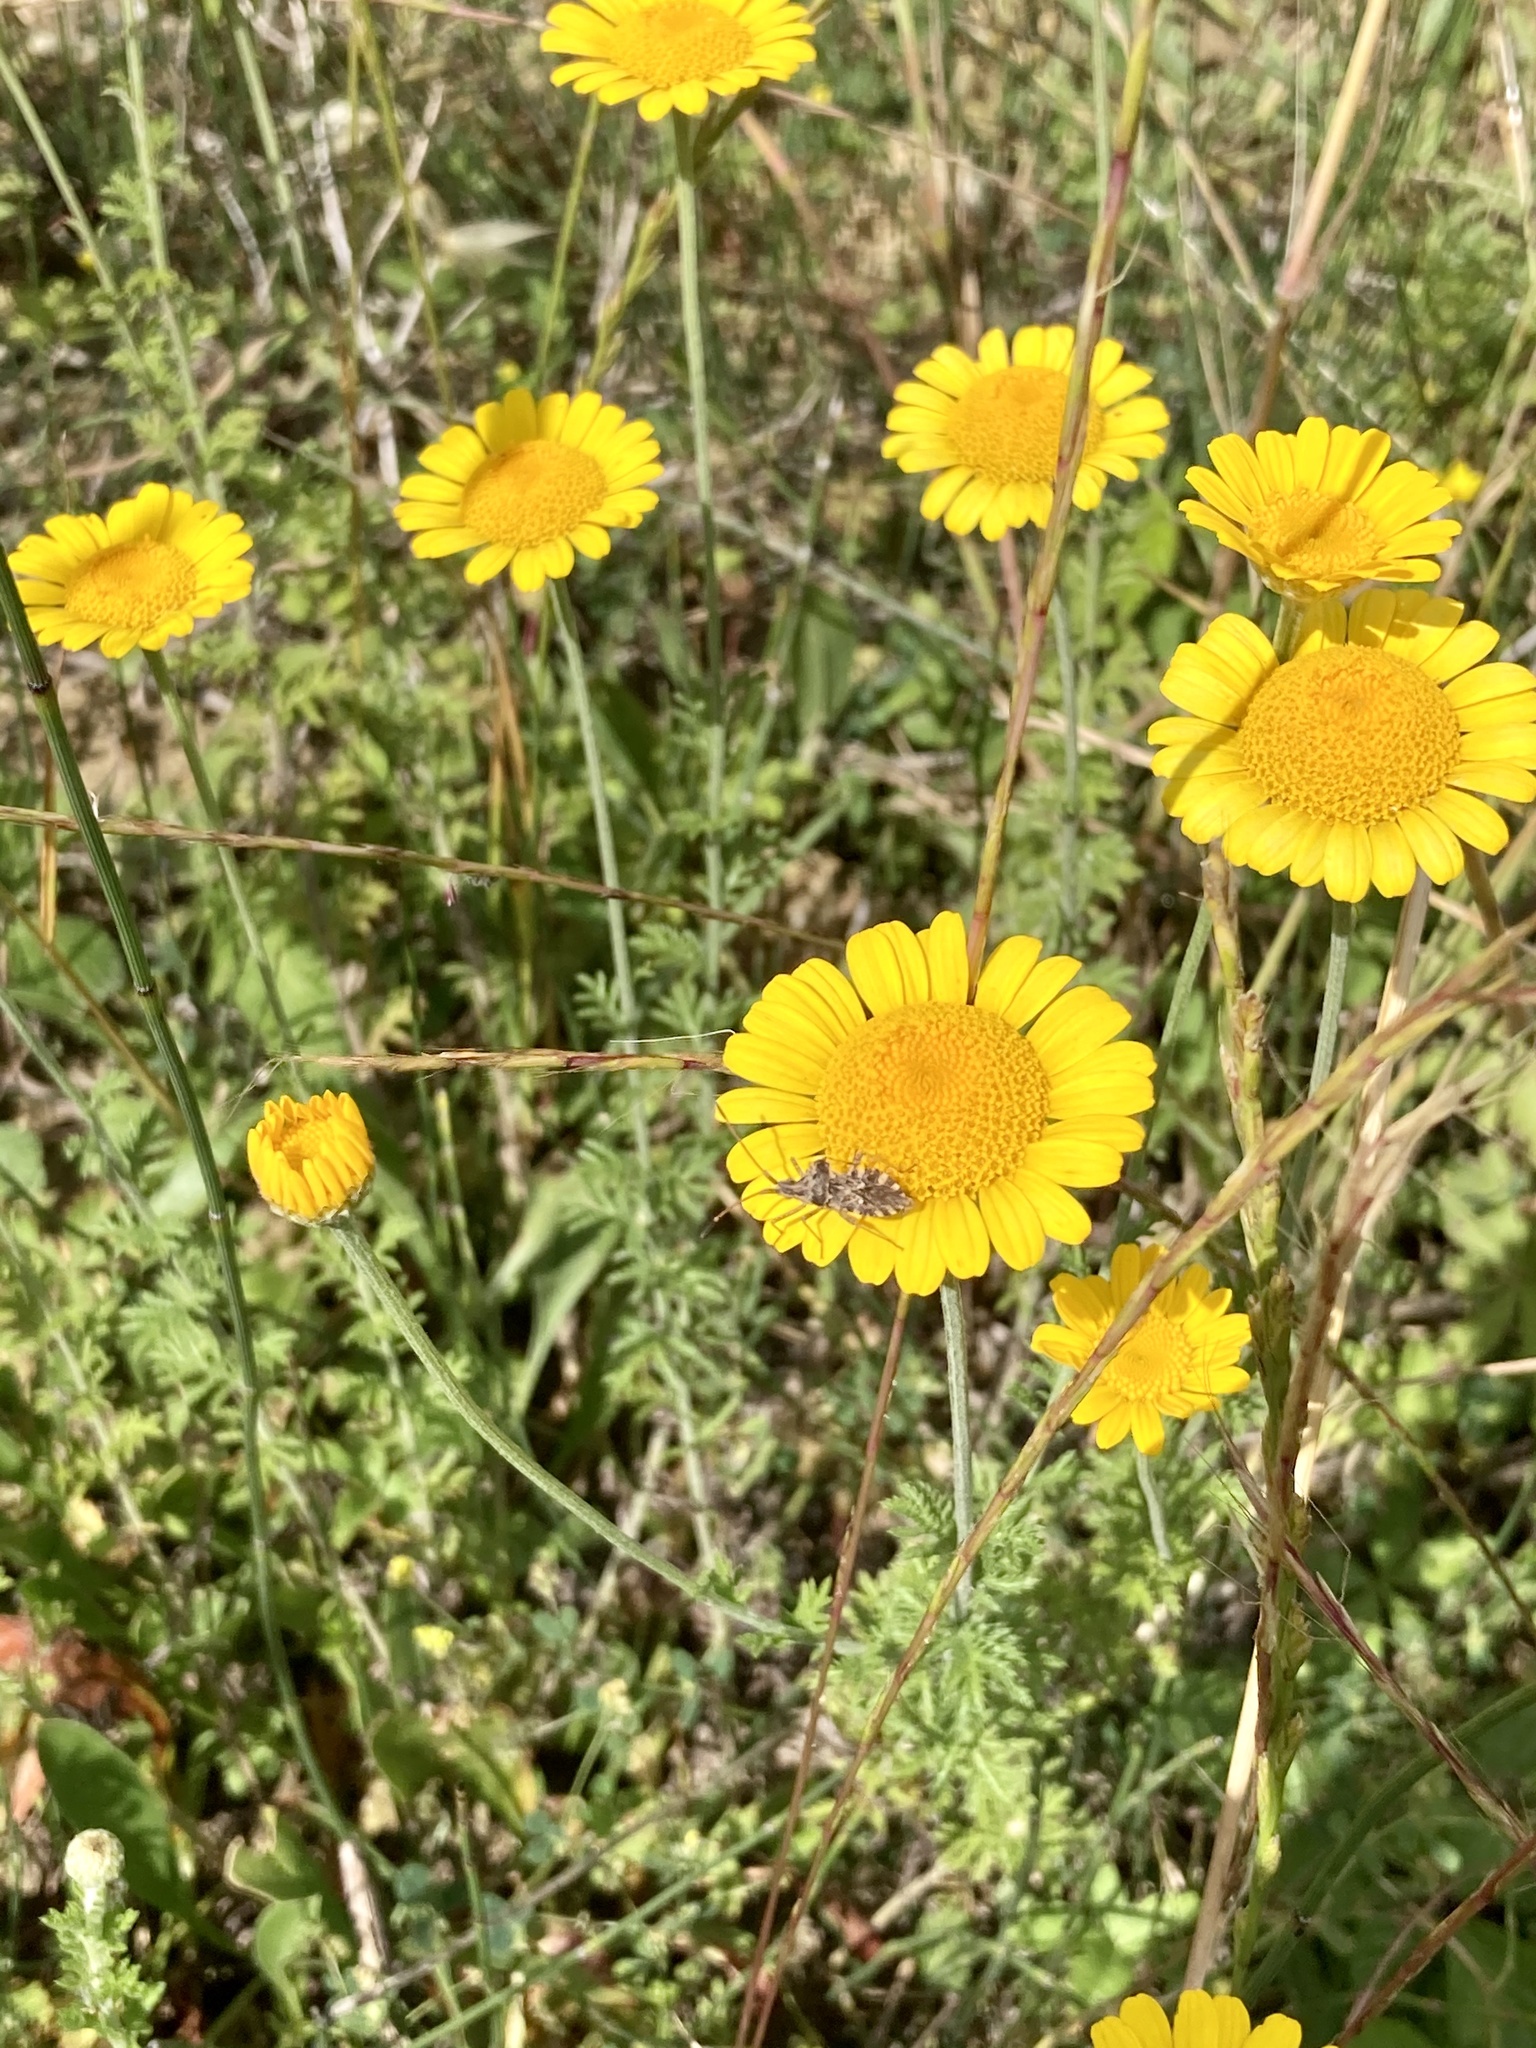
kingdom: Animalia
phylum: Arthropoda
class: Insecta
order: Hemiptera
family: Coreidae
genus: Centrocoris
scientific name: Centrocoris
